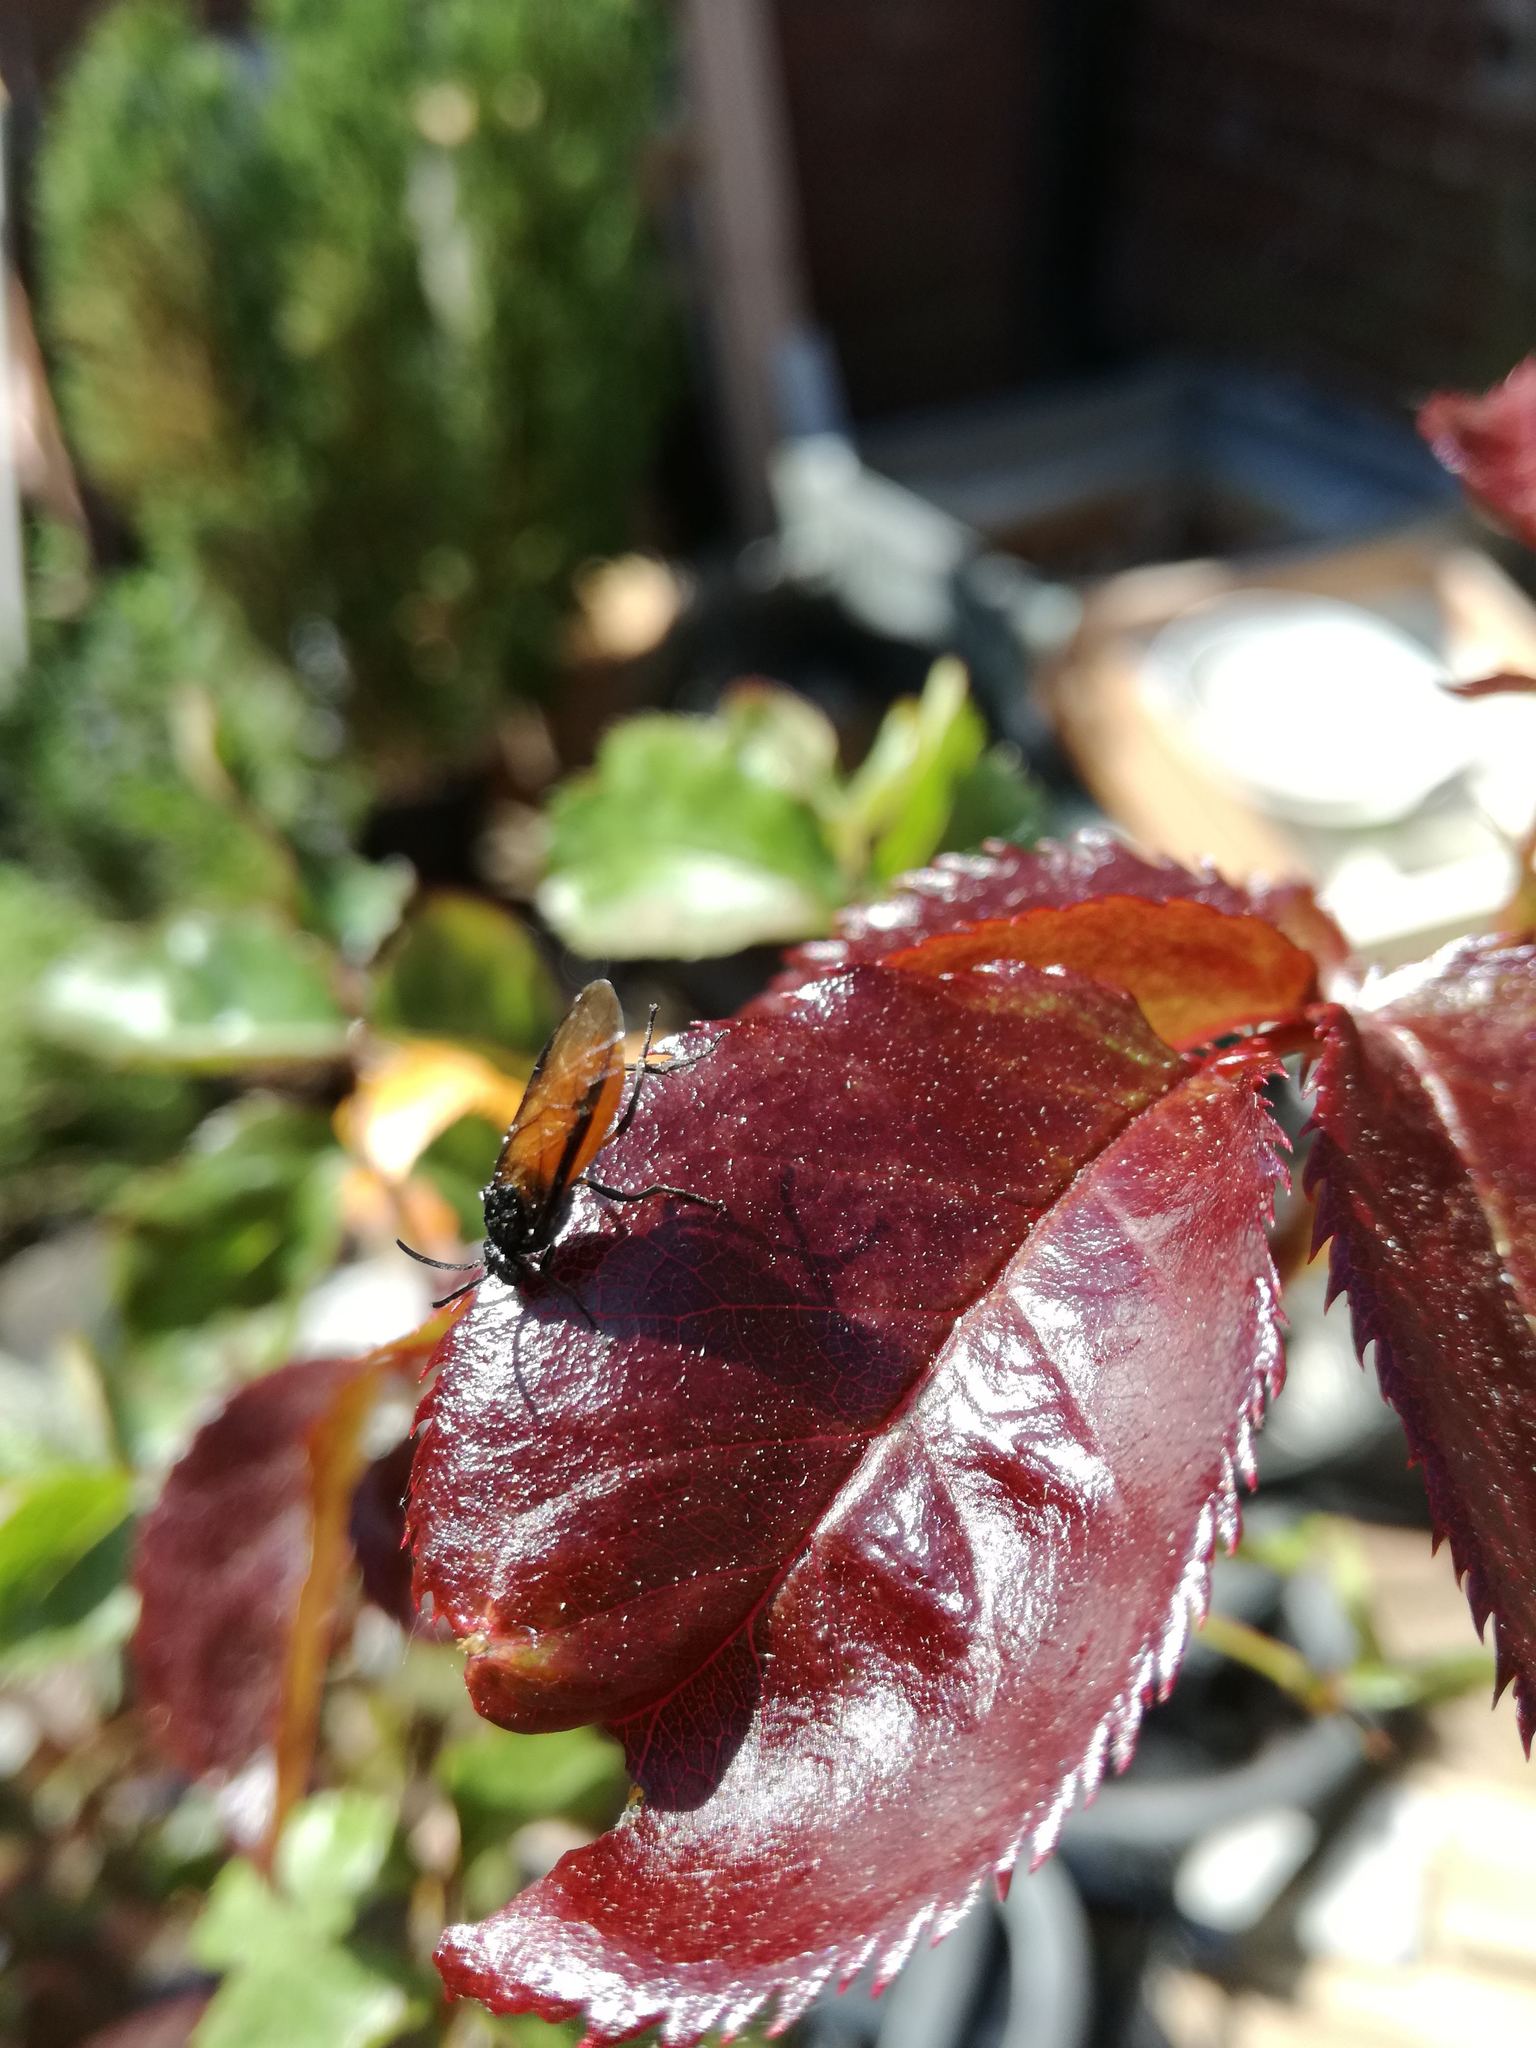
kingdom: Animalia
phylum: Arthropoda
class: Insecta
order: Hymenoptera
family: Argidae
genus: Arge
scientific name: Arge ochropus
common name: Argid sawfly
